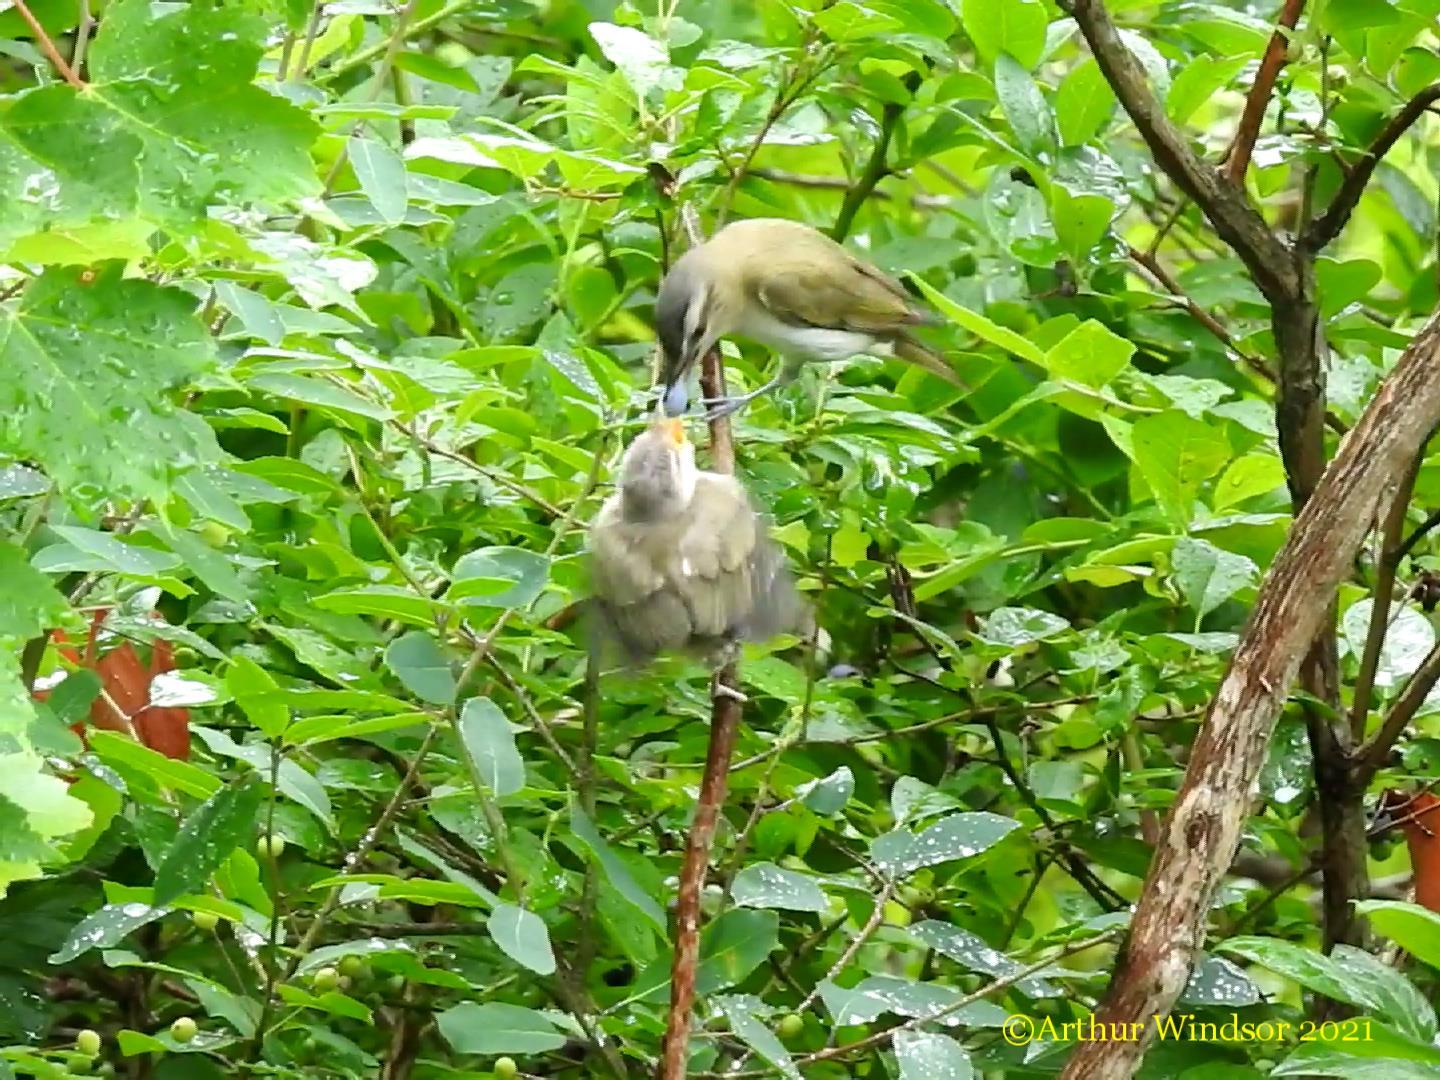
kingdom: Animalia
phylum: Chordata
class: Aves
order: Passeriformes
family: Vireonidae
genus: Vireo
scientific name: Vireo olivaceus
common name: Red-eyed vireo
